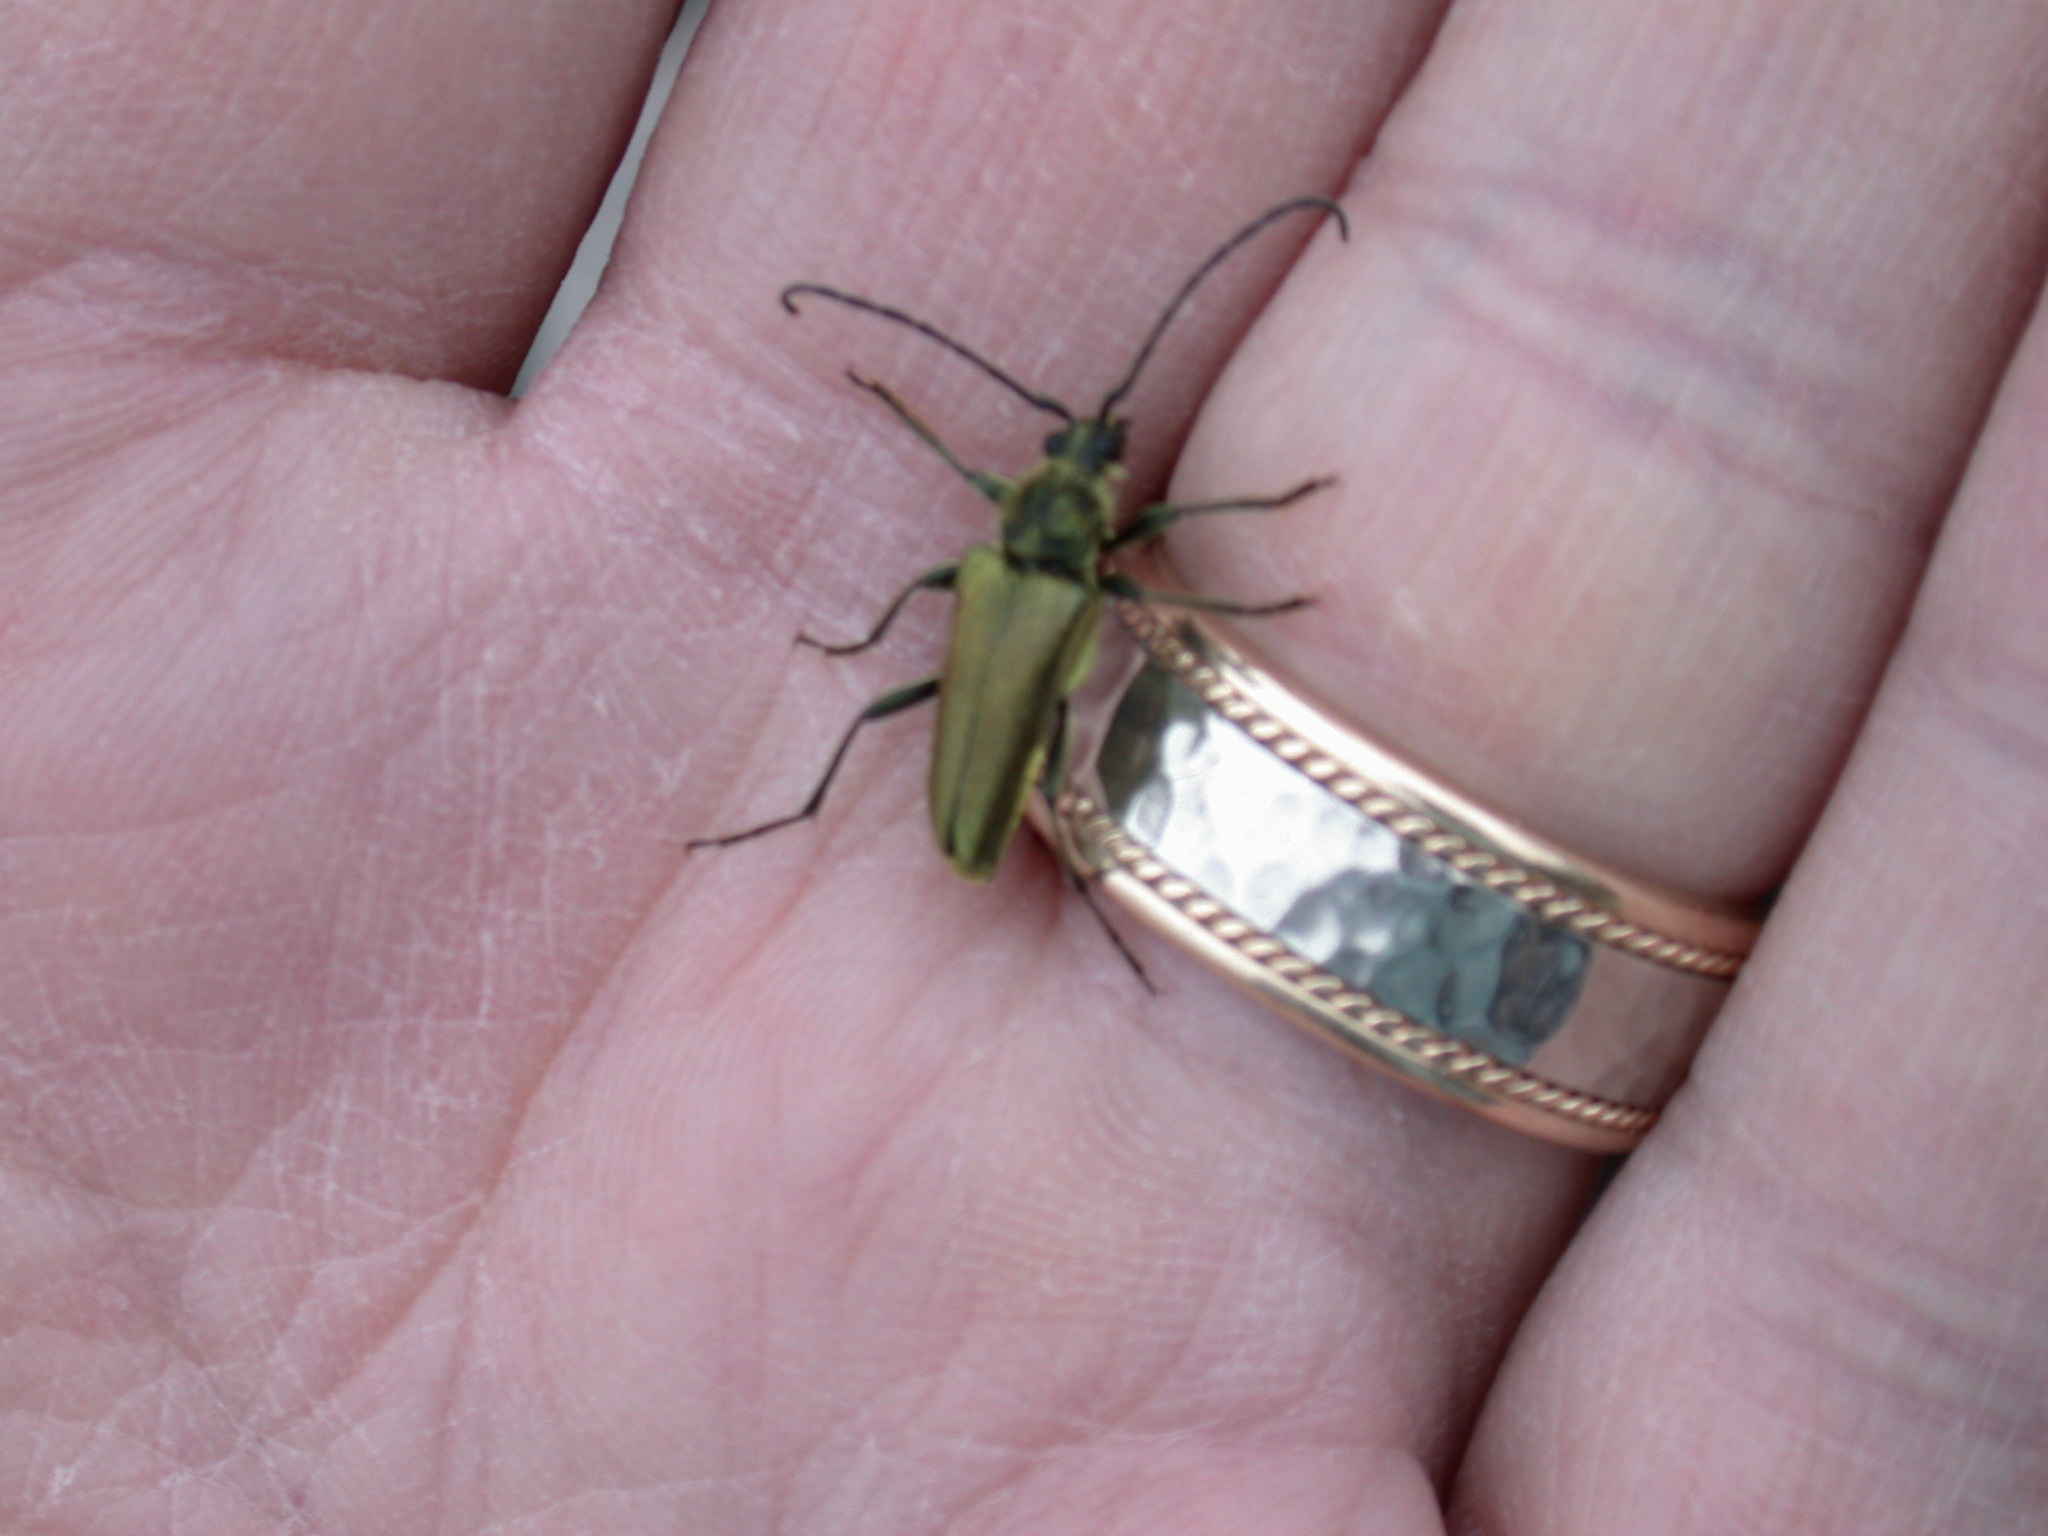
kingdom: Animalia
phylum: Arthropoda
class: Insecta
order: Coleoptera
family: Cerambycidae
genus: Cosmosalia
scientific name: Cosmosalia chrysocoma
